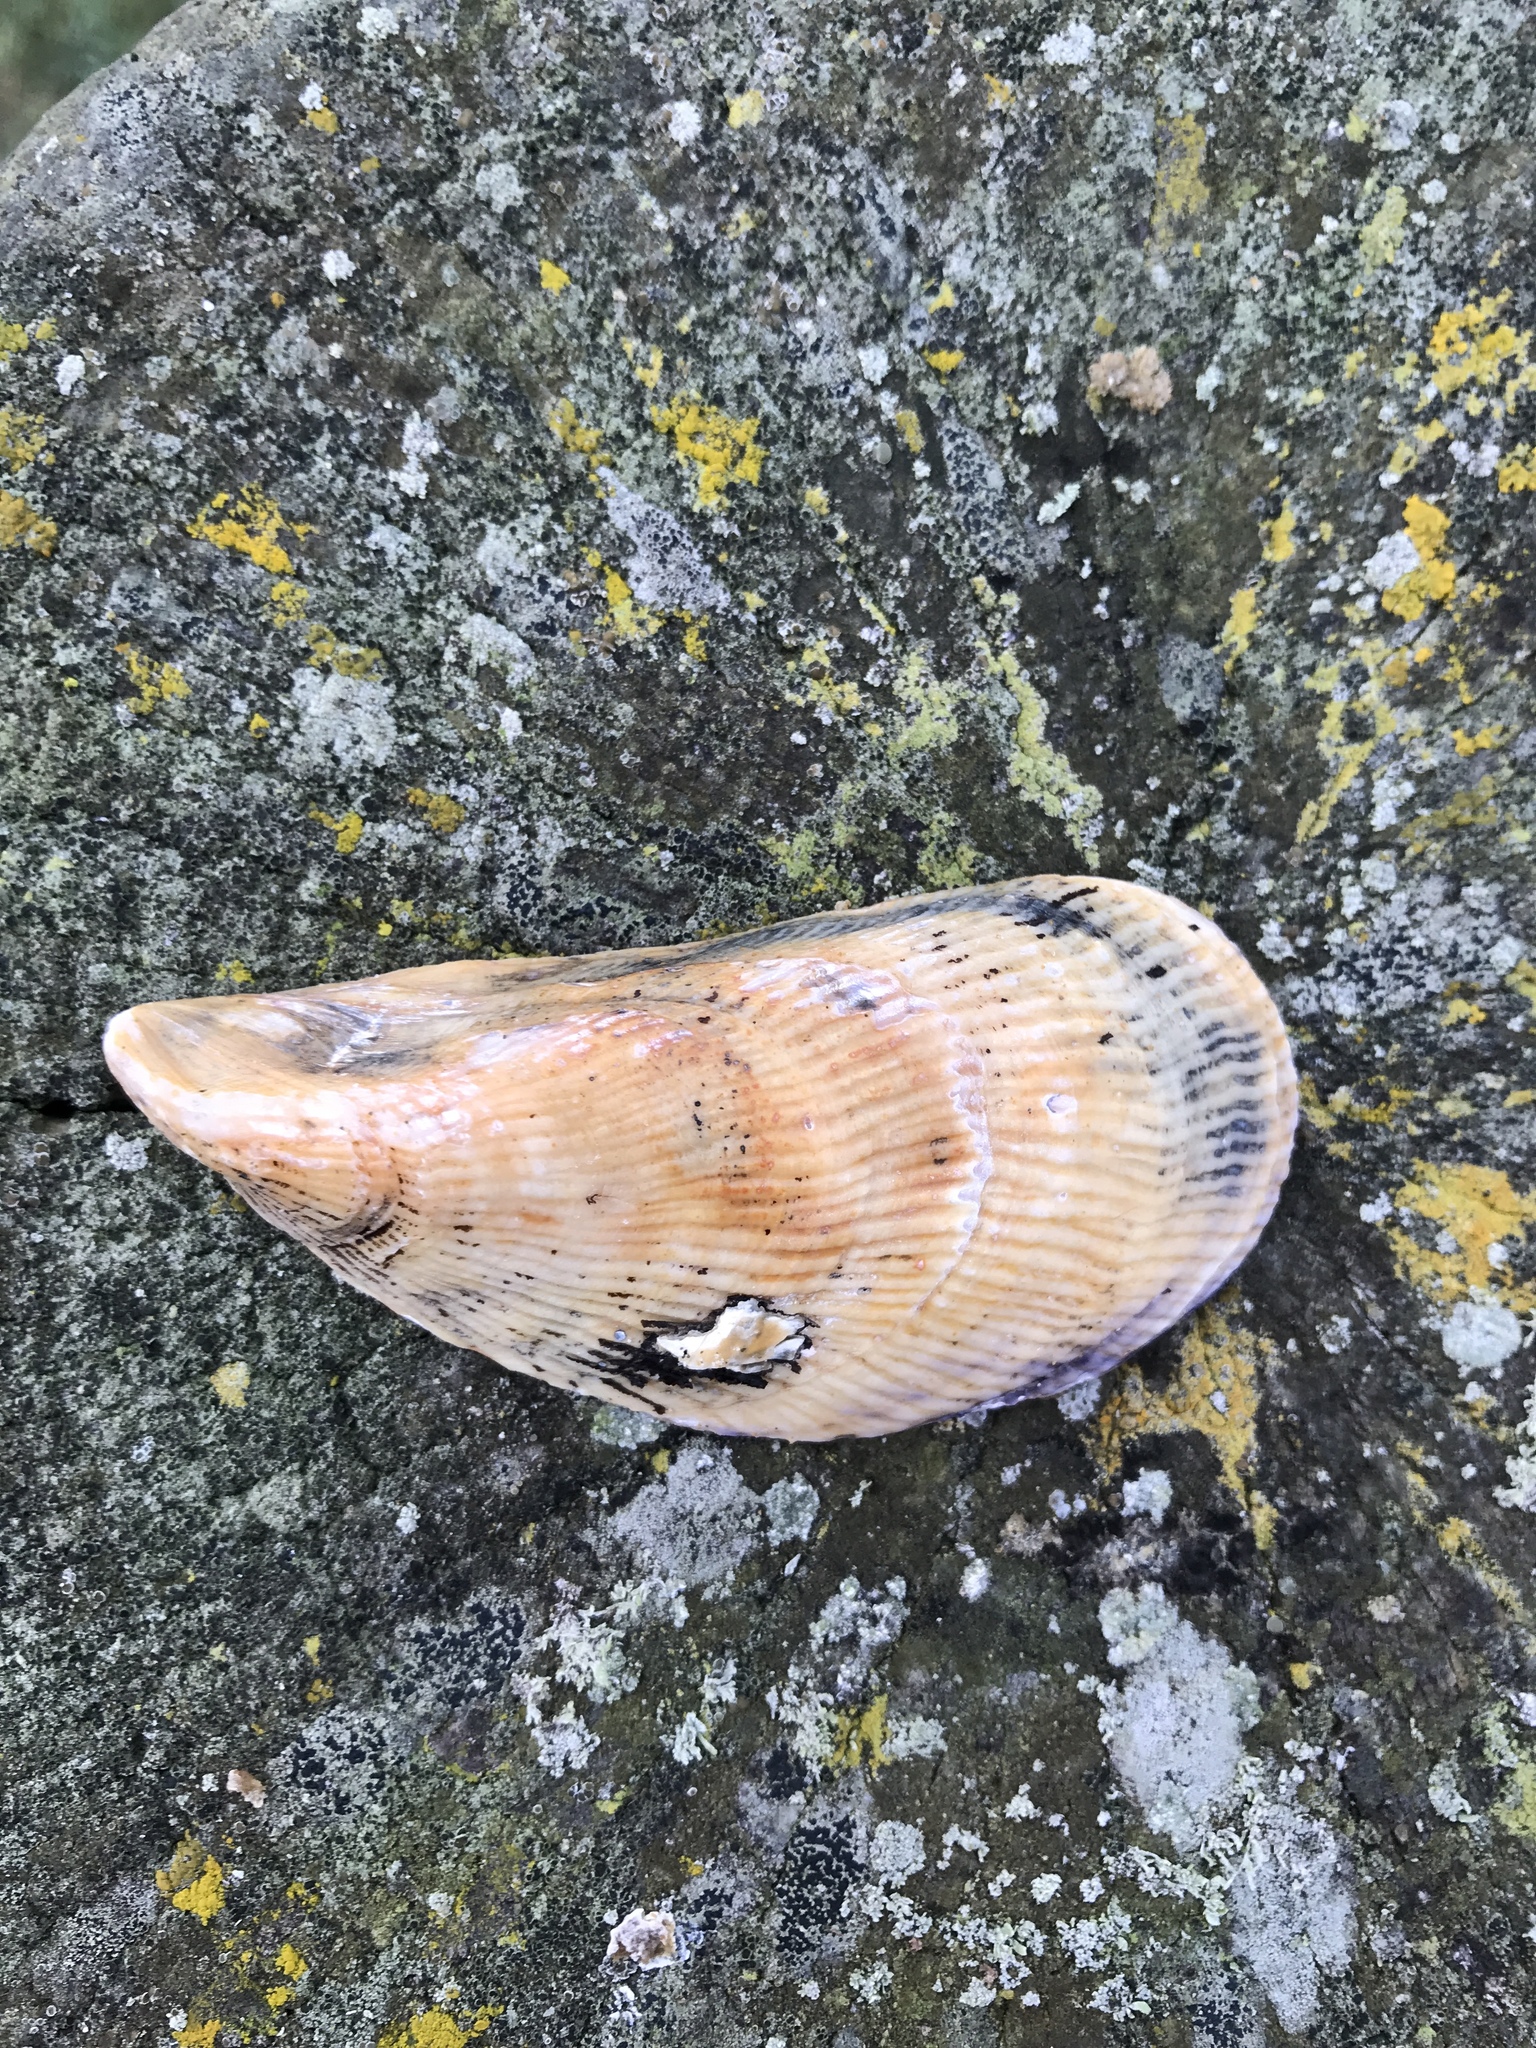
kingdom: Animalia
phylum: Mollusca
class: Bivalvia
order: Mytilida
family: Mytilidae
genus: Aulacomya
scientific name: Aulacomya maoriana
